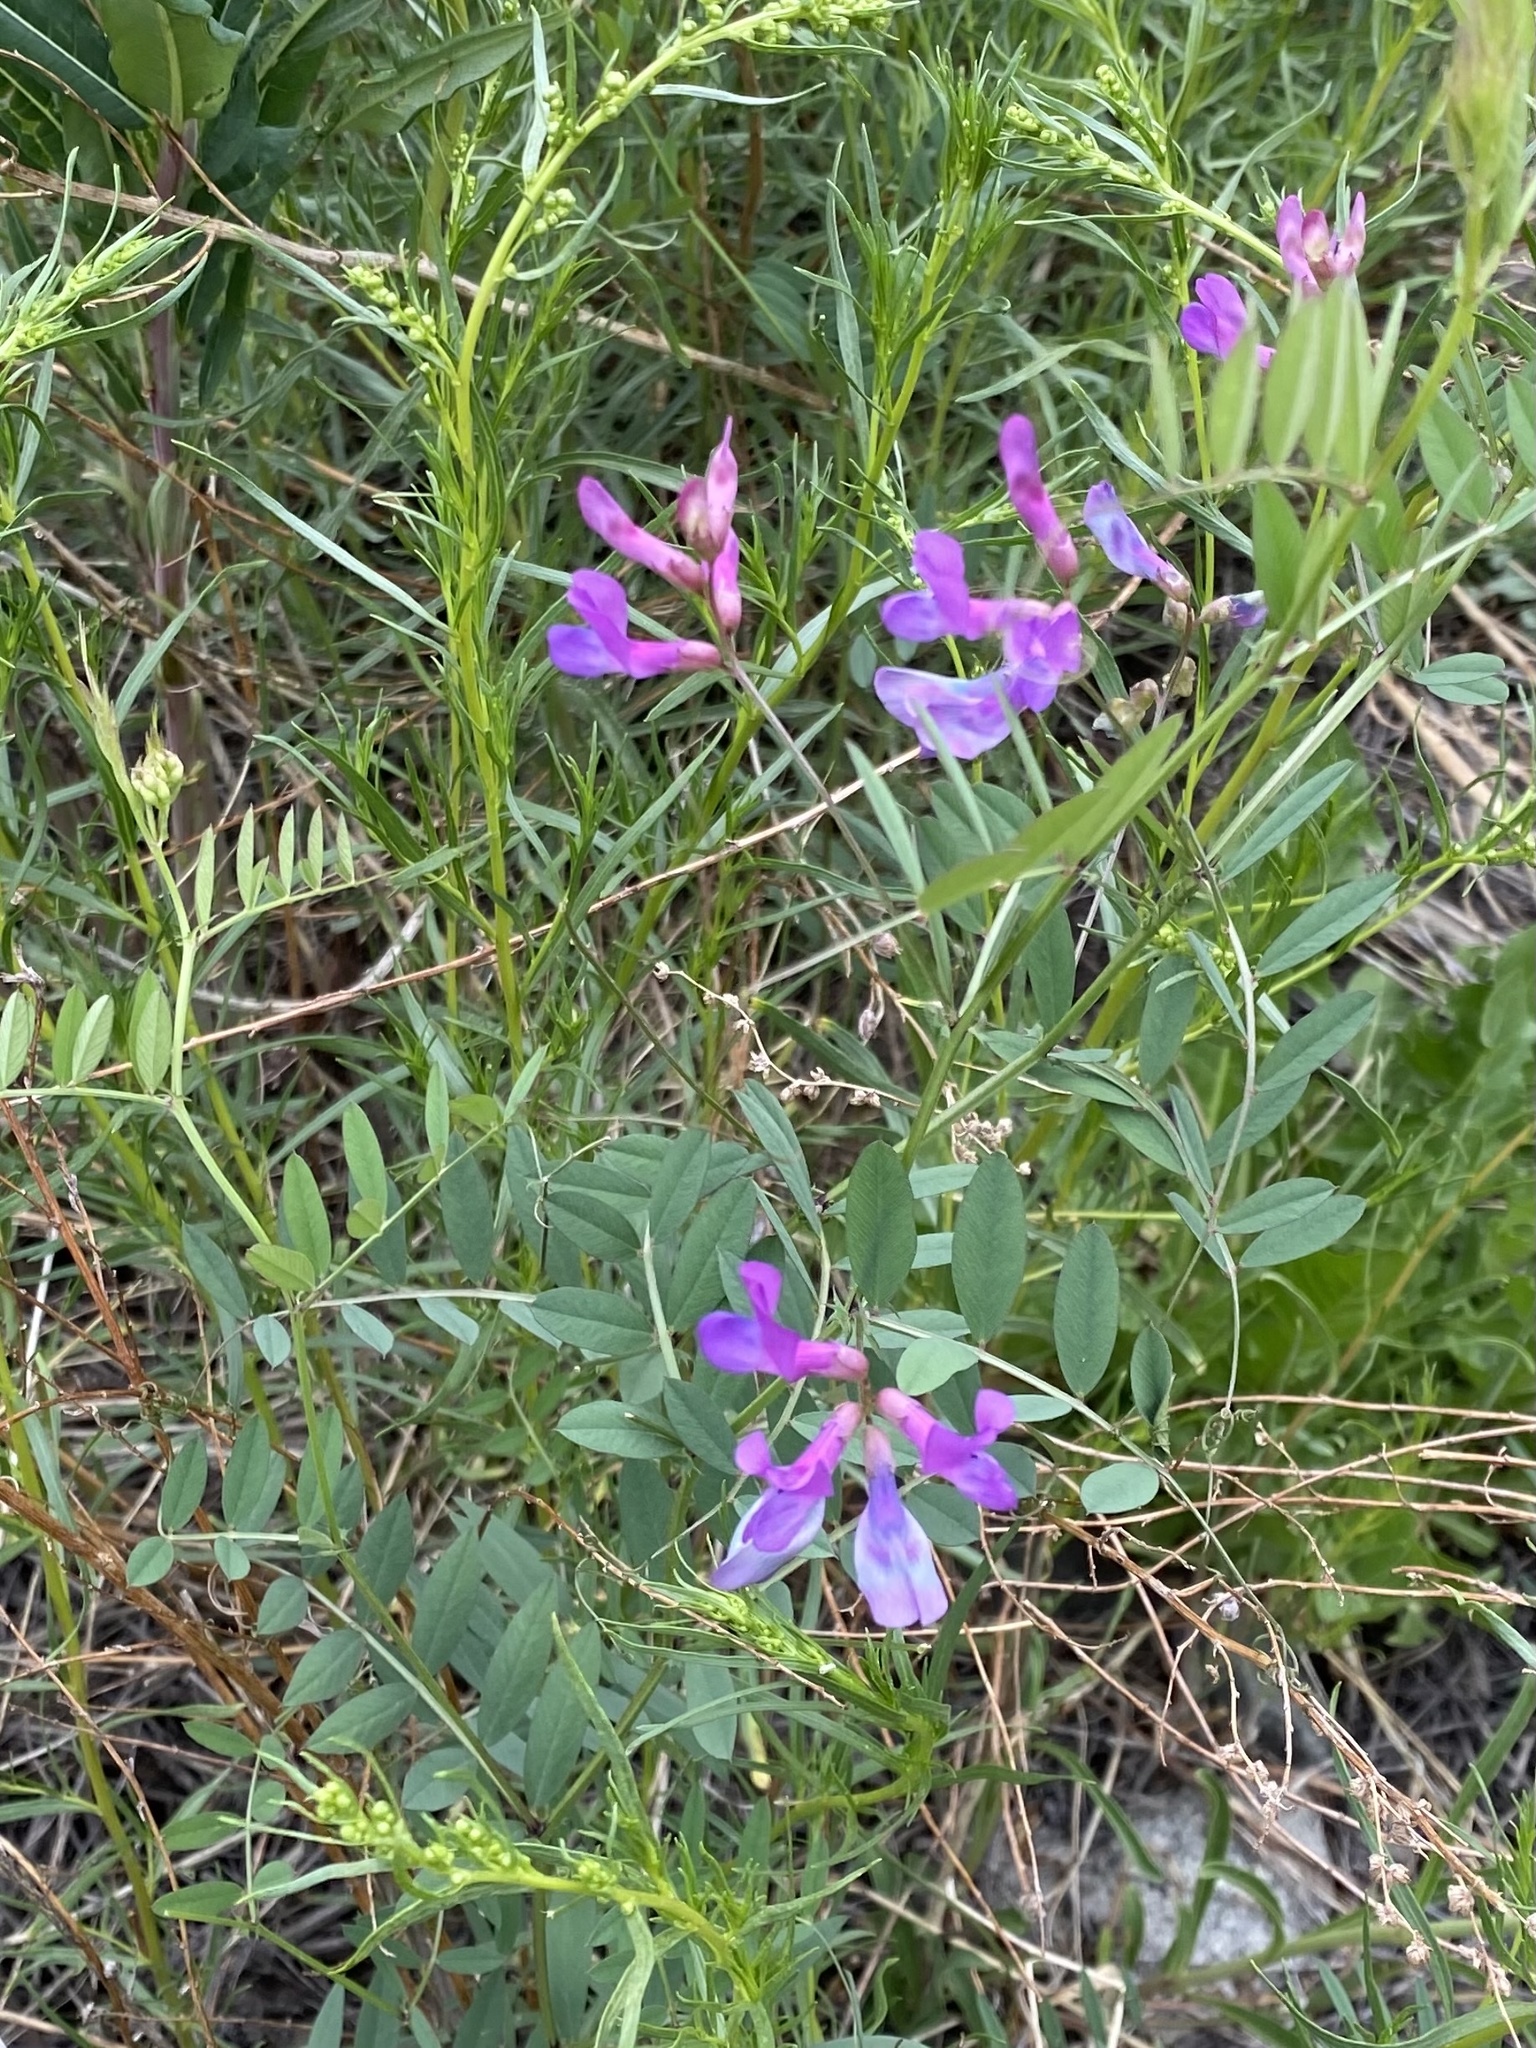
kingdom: Plantae
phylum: Tracheophyta
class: Magnoliopsida
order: Fabales
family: Fabaceae
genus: Vicia
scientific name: Vicia americana
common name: American vetch
